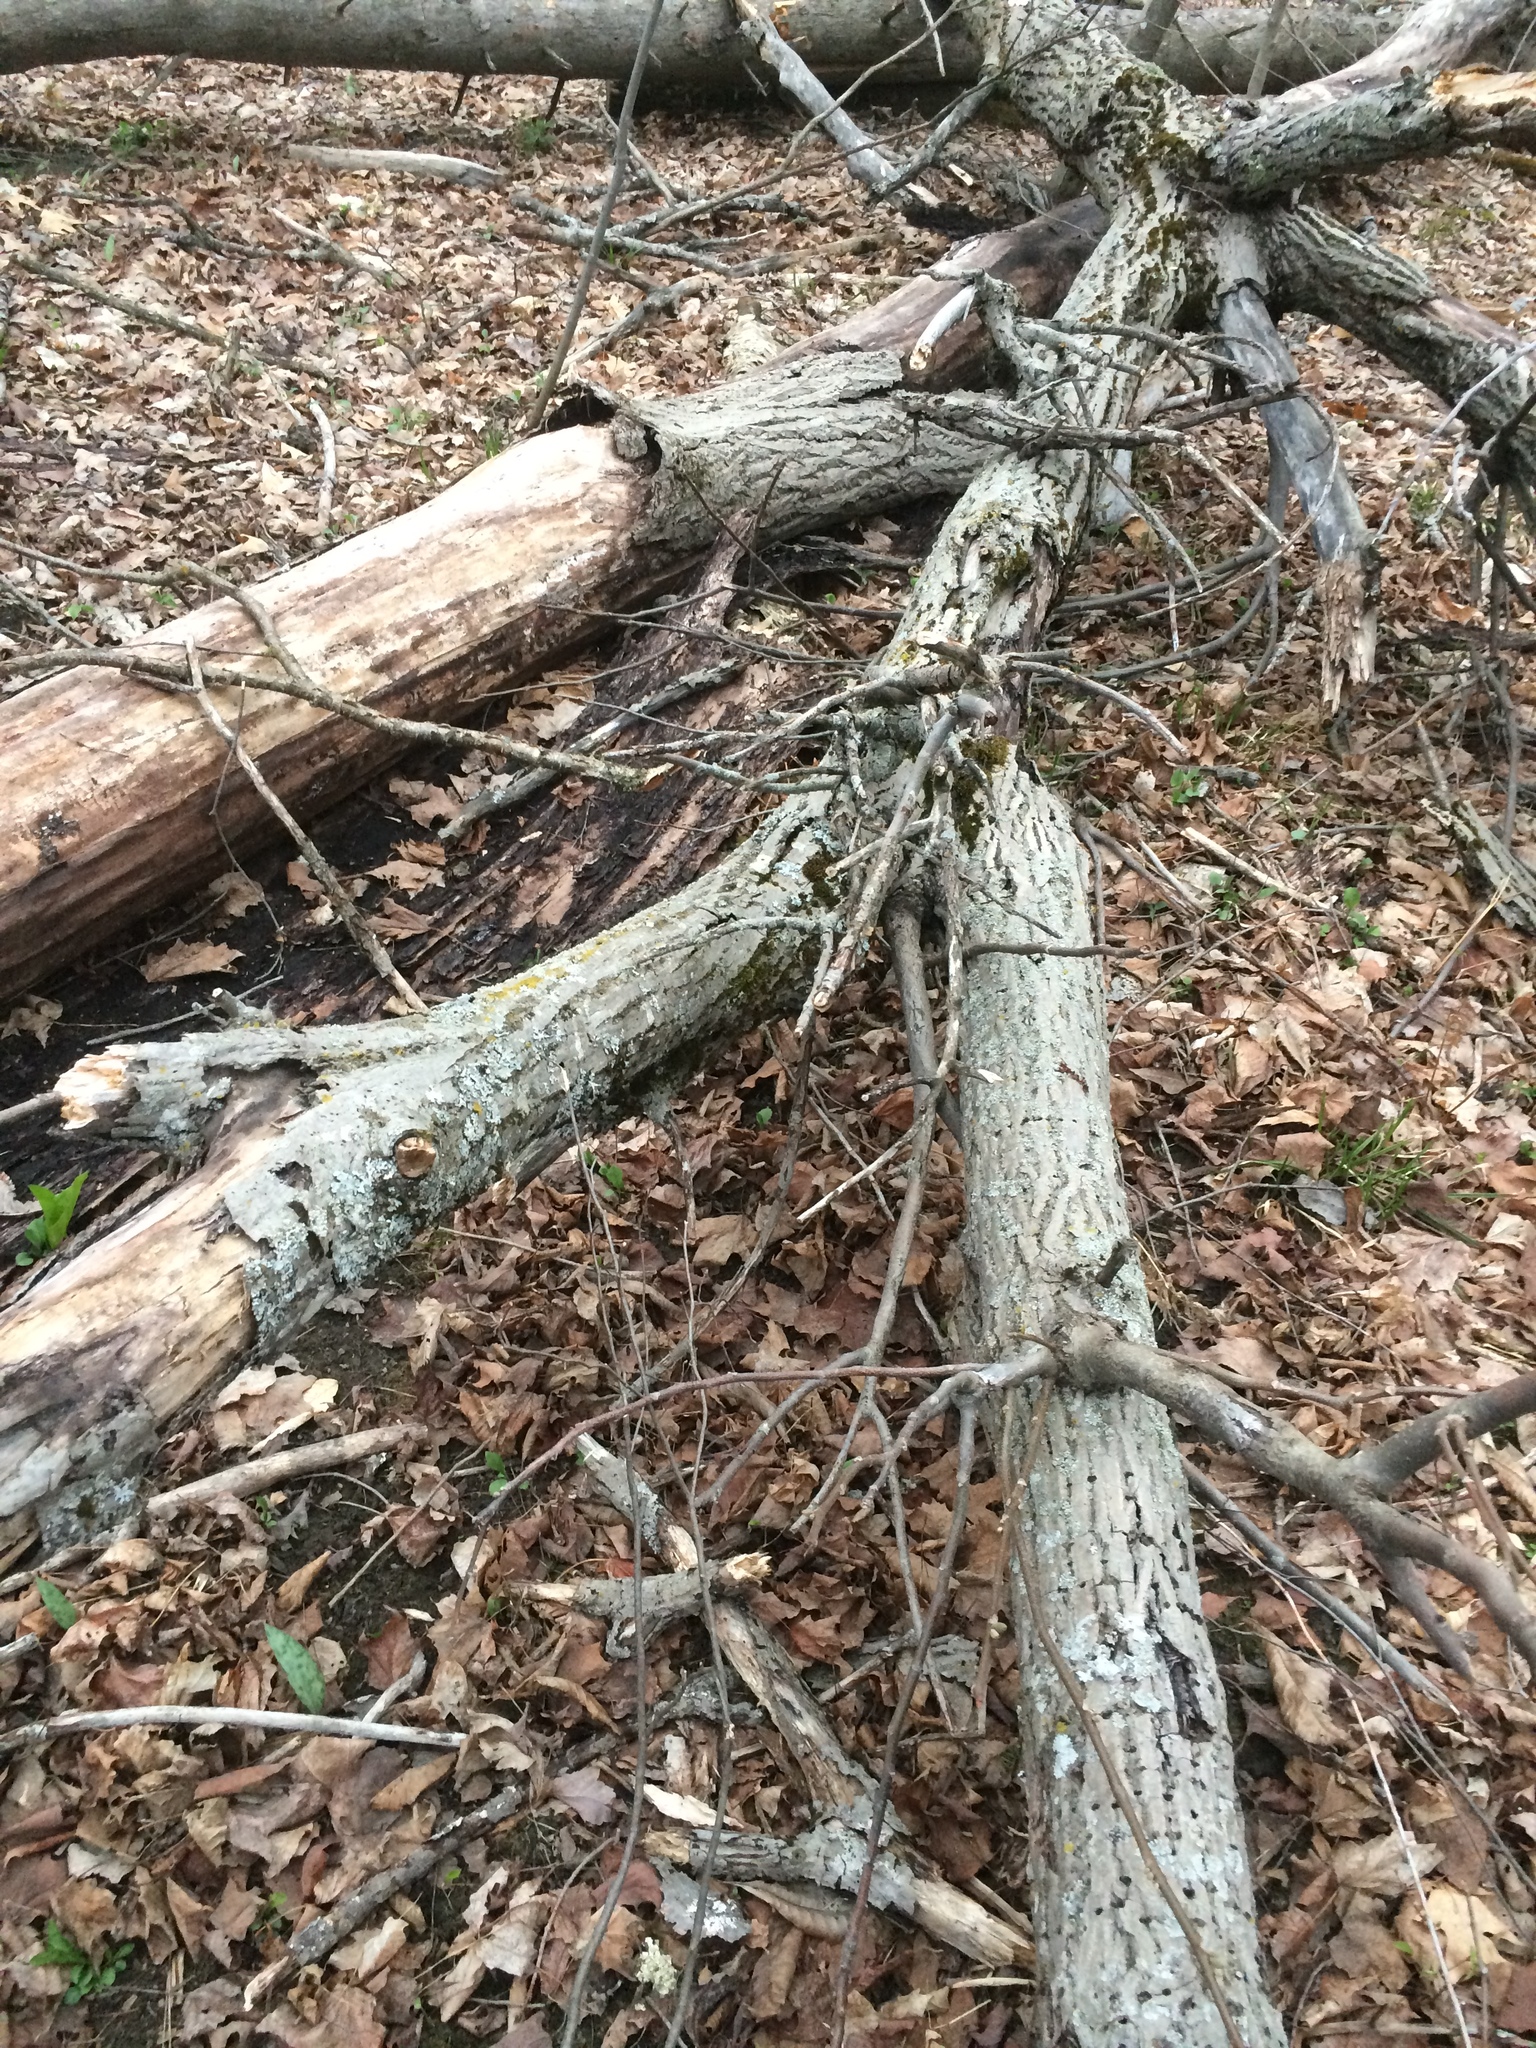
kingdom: Plantae
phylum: Tracheophyta
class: Magnoliopsida
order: Fagales
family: Juglandaceae
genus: Juglans
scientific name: Juglans cinerea
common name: Butternut
